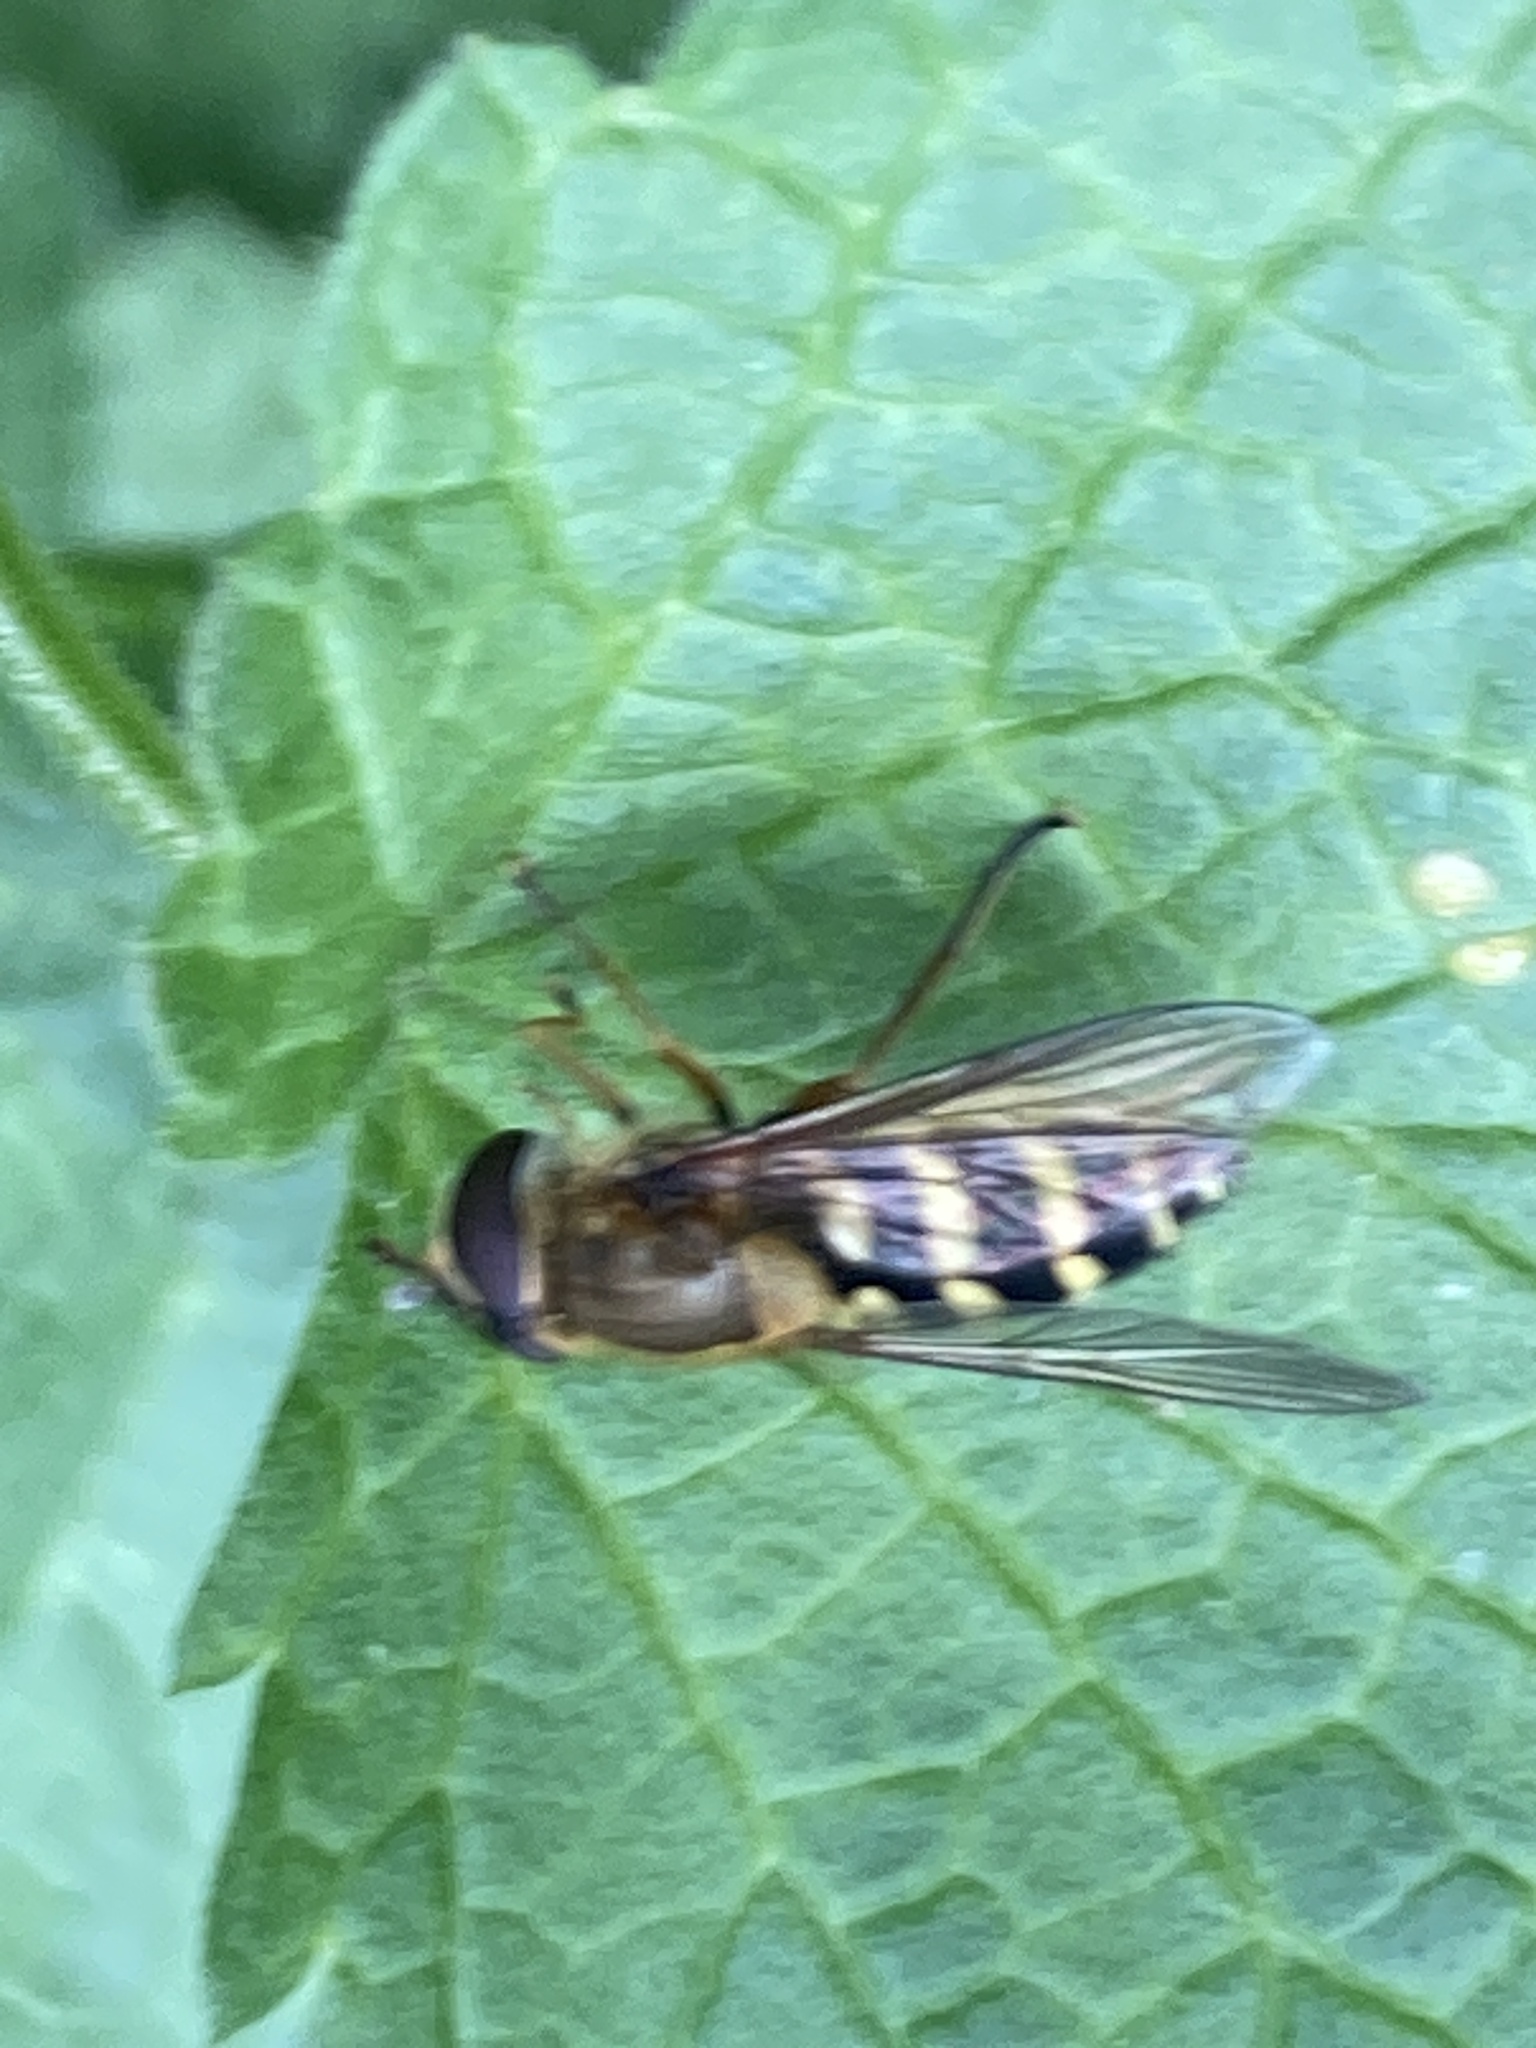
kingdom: Animalia
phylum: Arthropoda
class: Insecta
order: Diptera
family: Syrphidae
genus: Syrphus
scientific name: Syrphus
